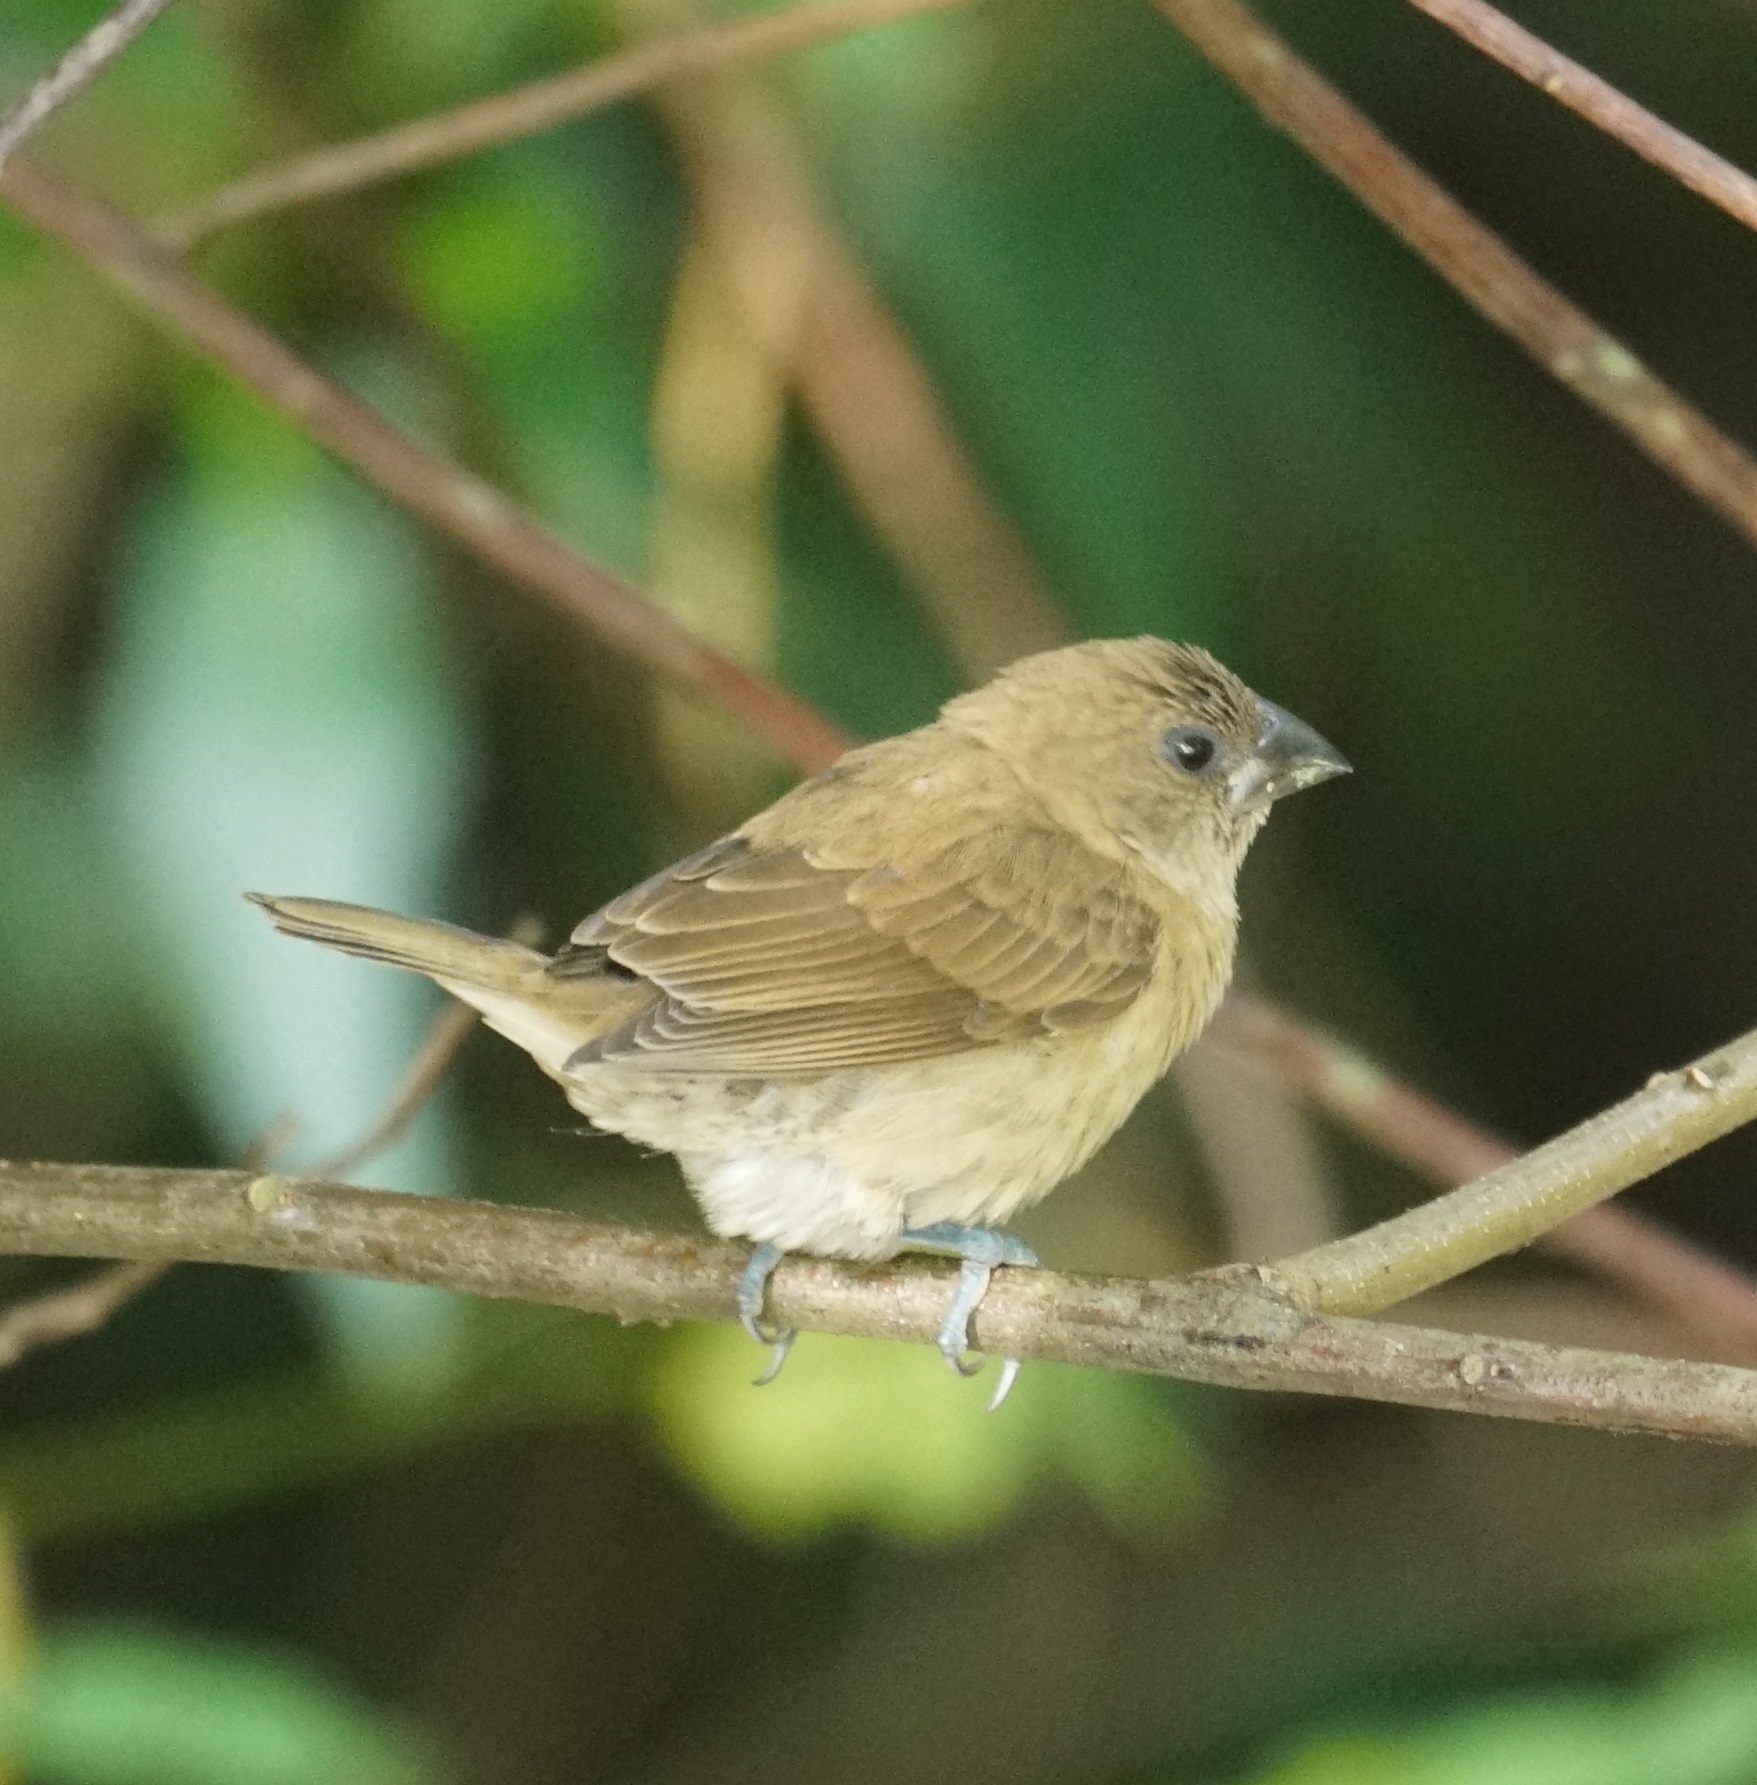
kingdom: Animalia
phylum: Chordata
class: Aves
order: Passeriformes
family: Estrildidae
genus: Lonchura
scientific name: Lonchura punctulata
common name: Scaly-breasted munia
